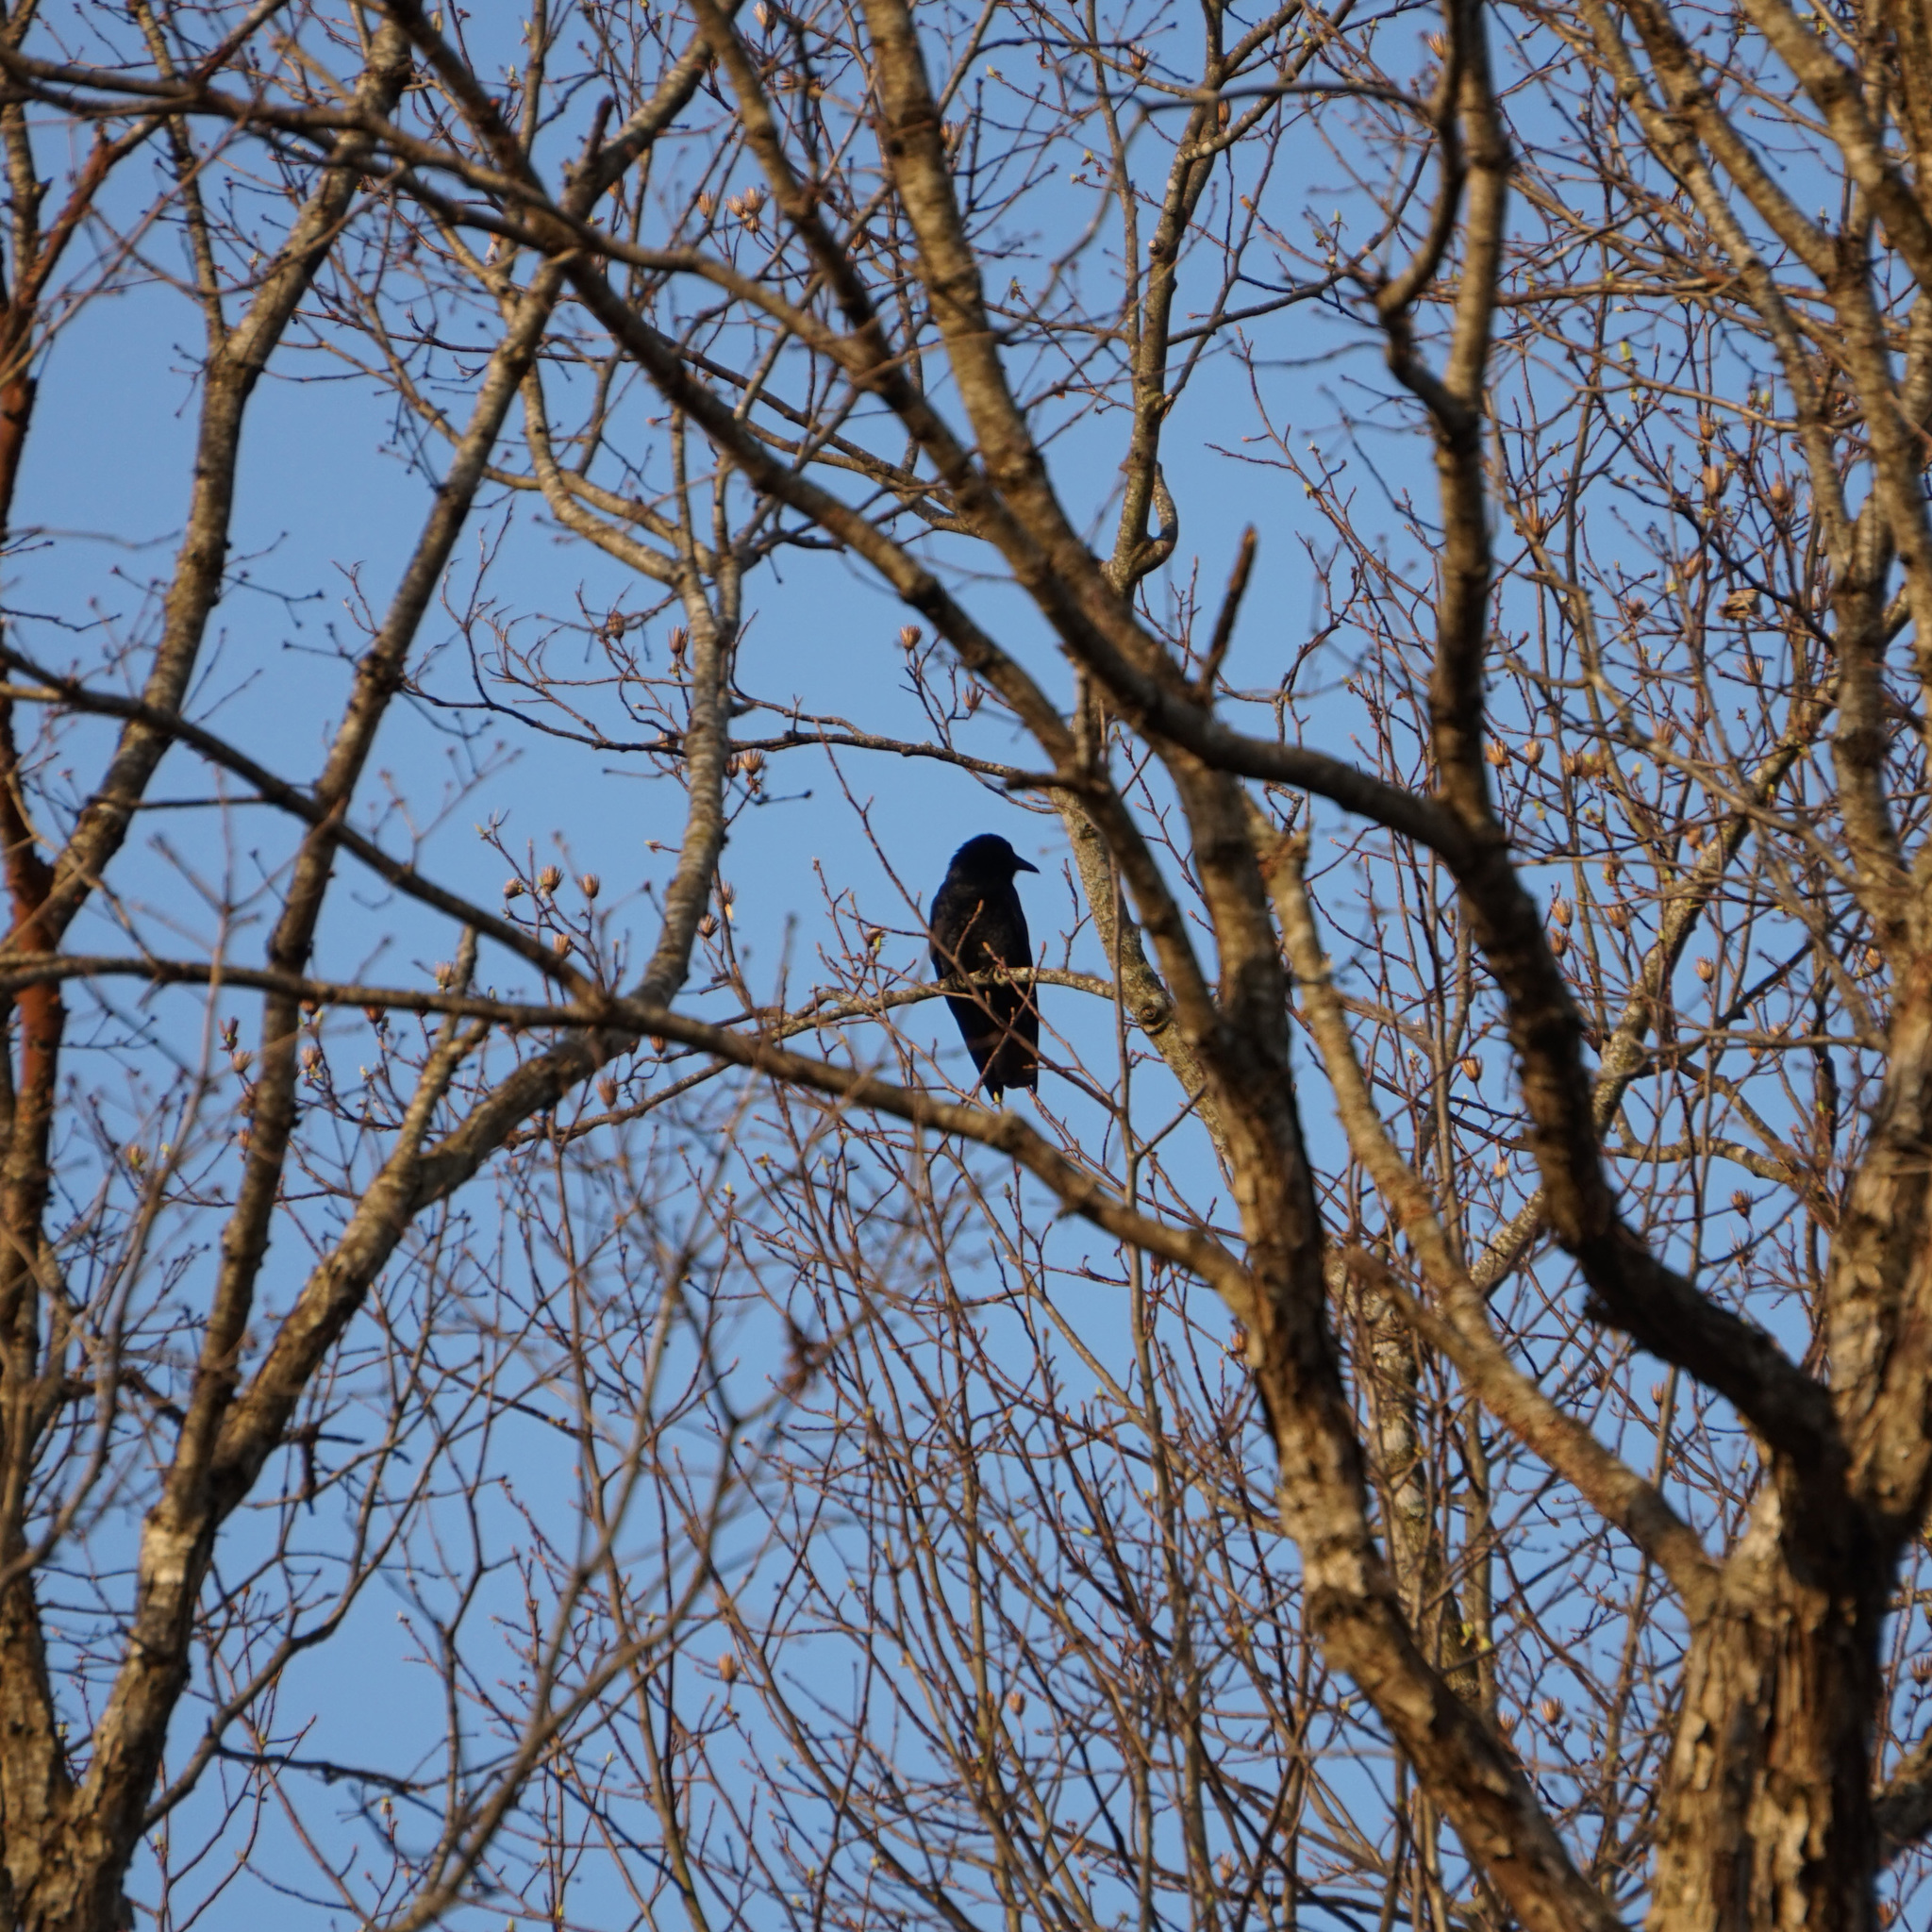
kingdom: Animalia
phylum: Chordata
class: Aves
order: Passeriformes
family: Corvidae
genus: Corvus
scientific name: Corvus brachyrhynchos
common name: American crow
